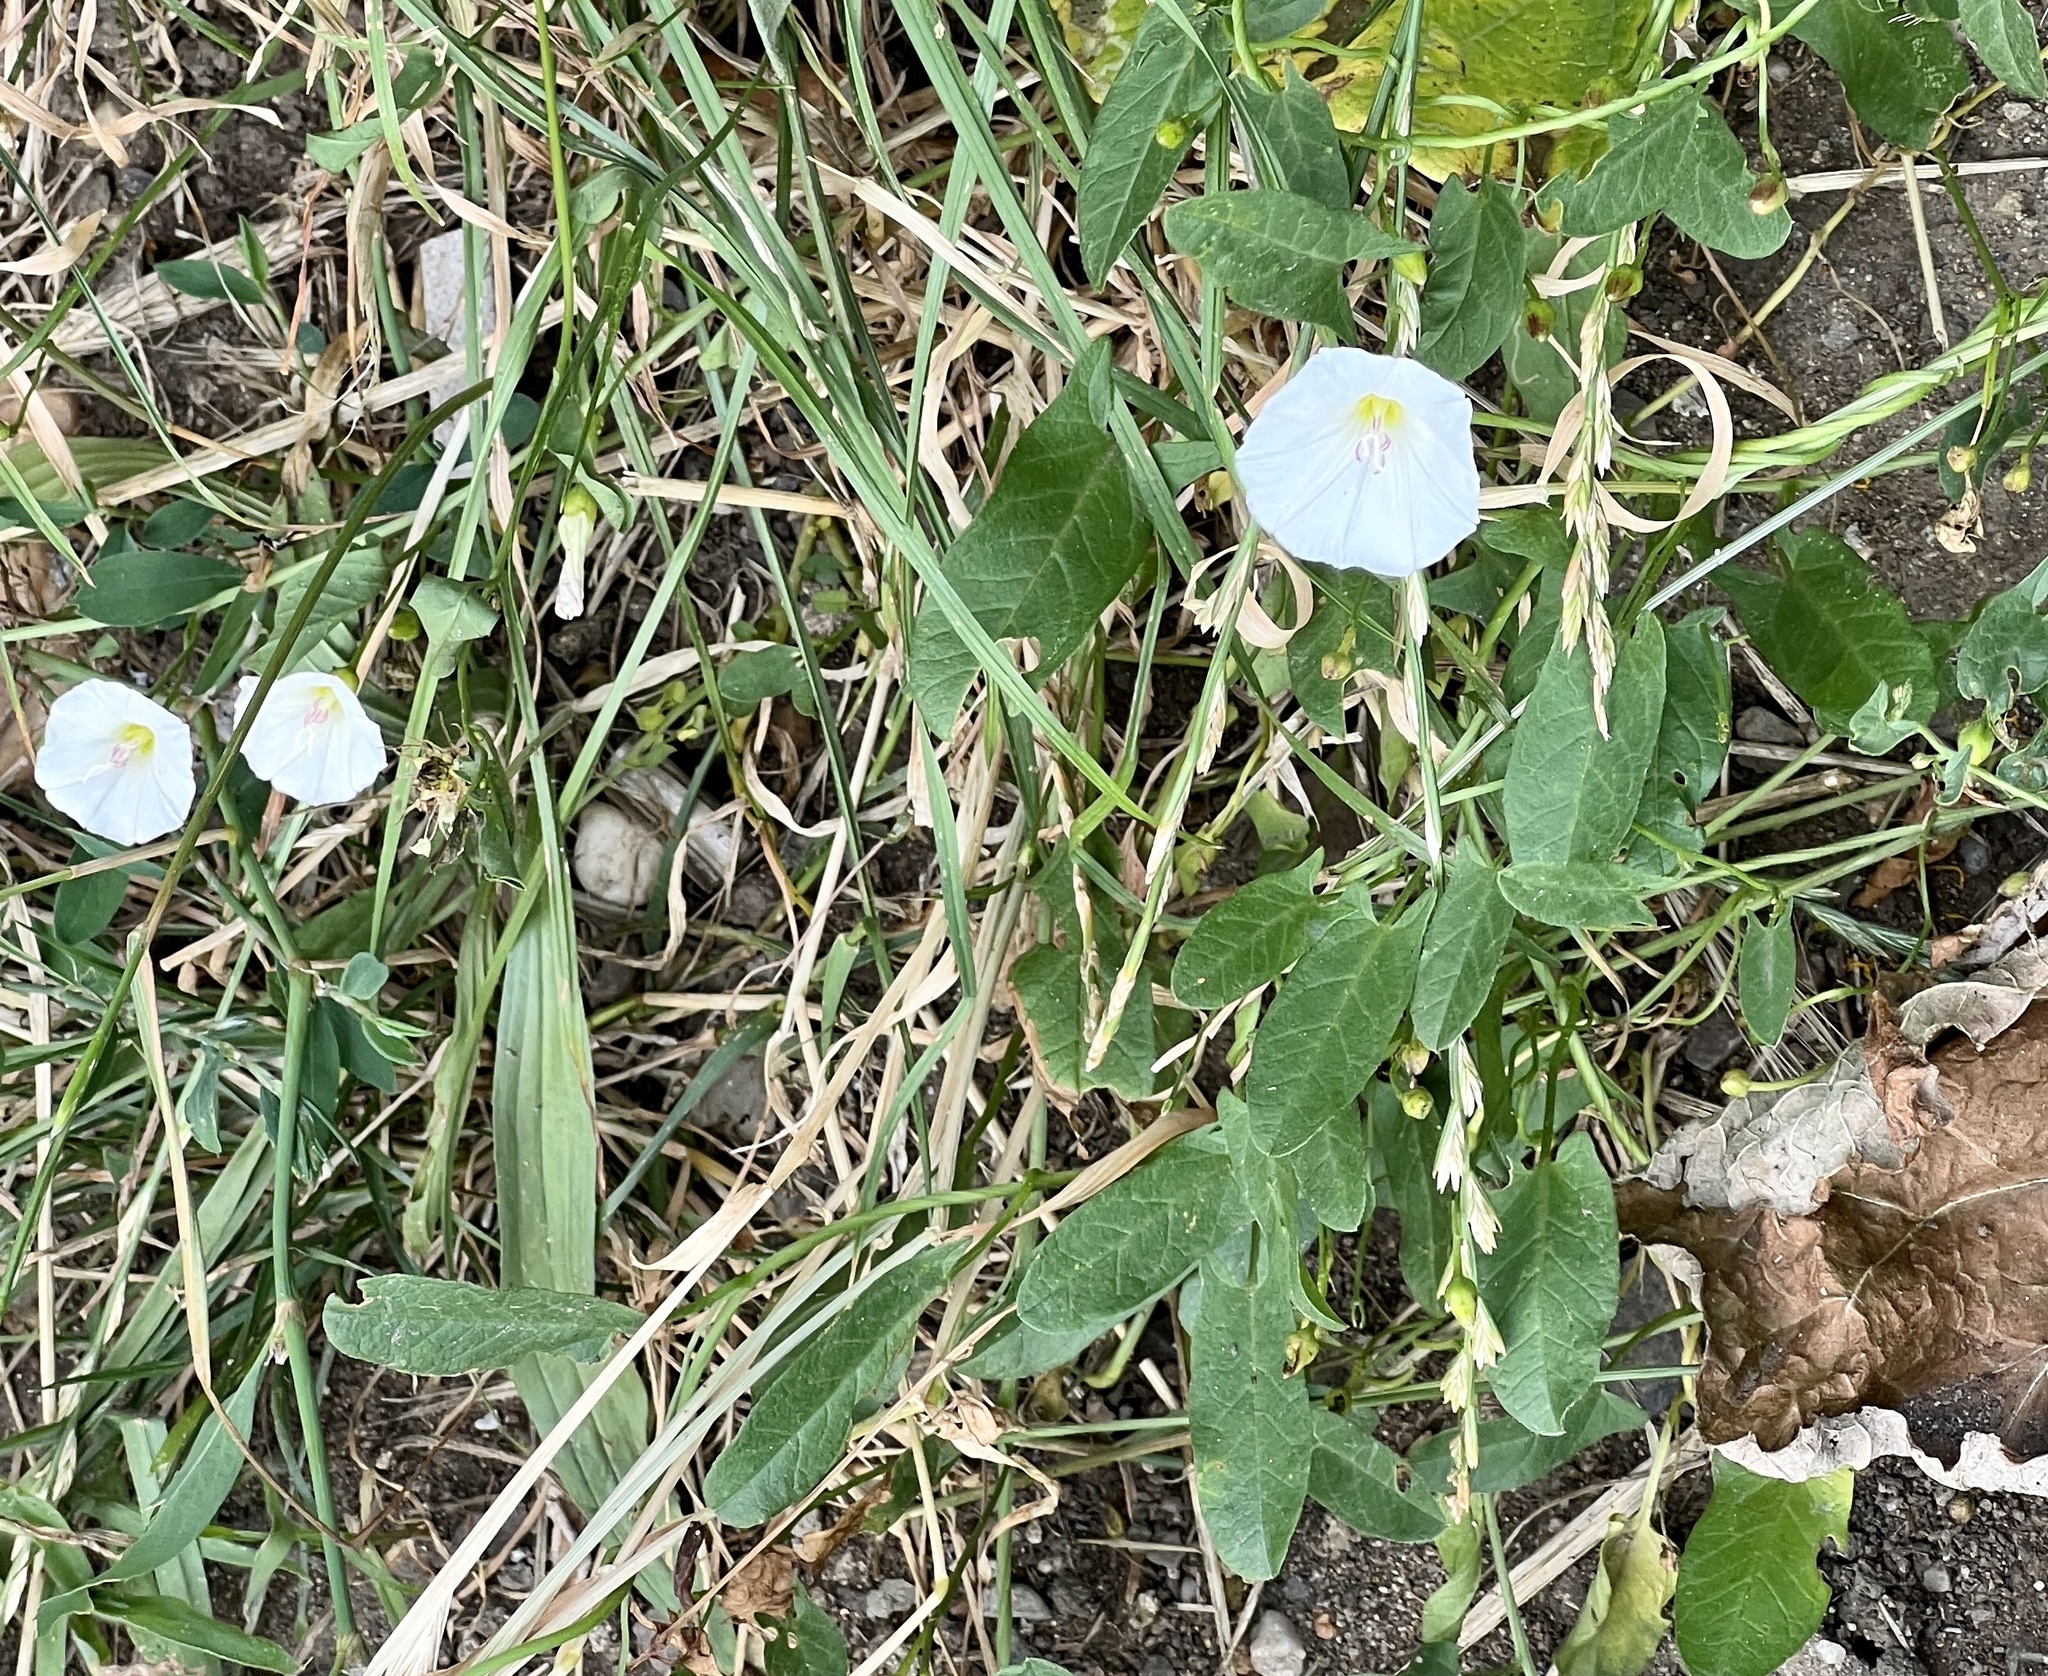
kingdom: Plantae
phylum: Tracheophyta
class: Magnoliopsida
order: Solanales
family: Convolvulaceae
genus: Convolvulus
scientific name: Convolvulus arvensis
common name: Field bindweed
